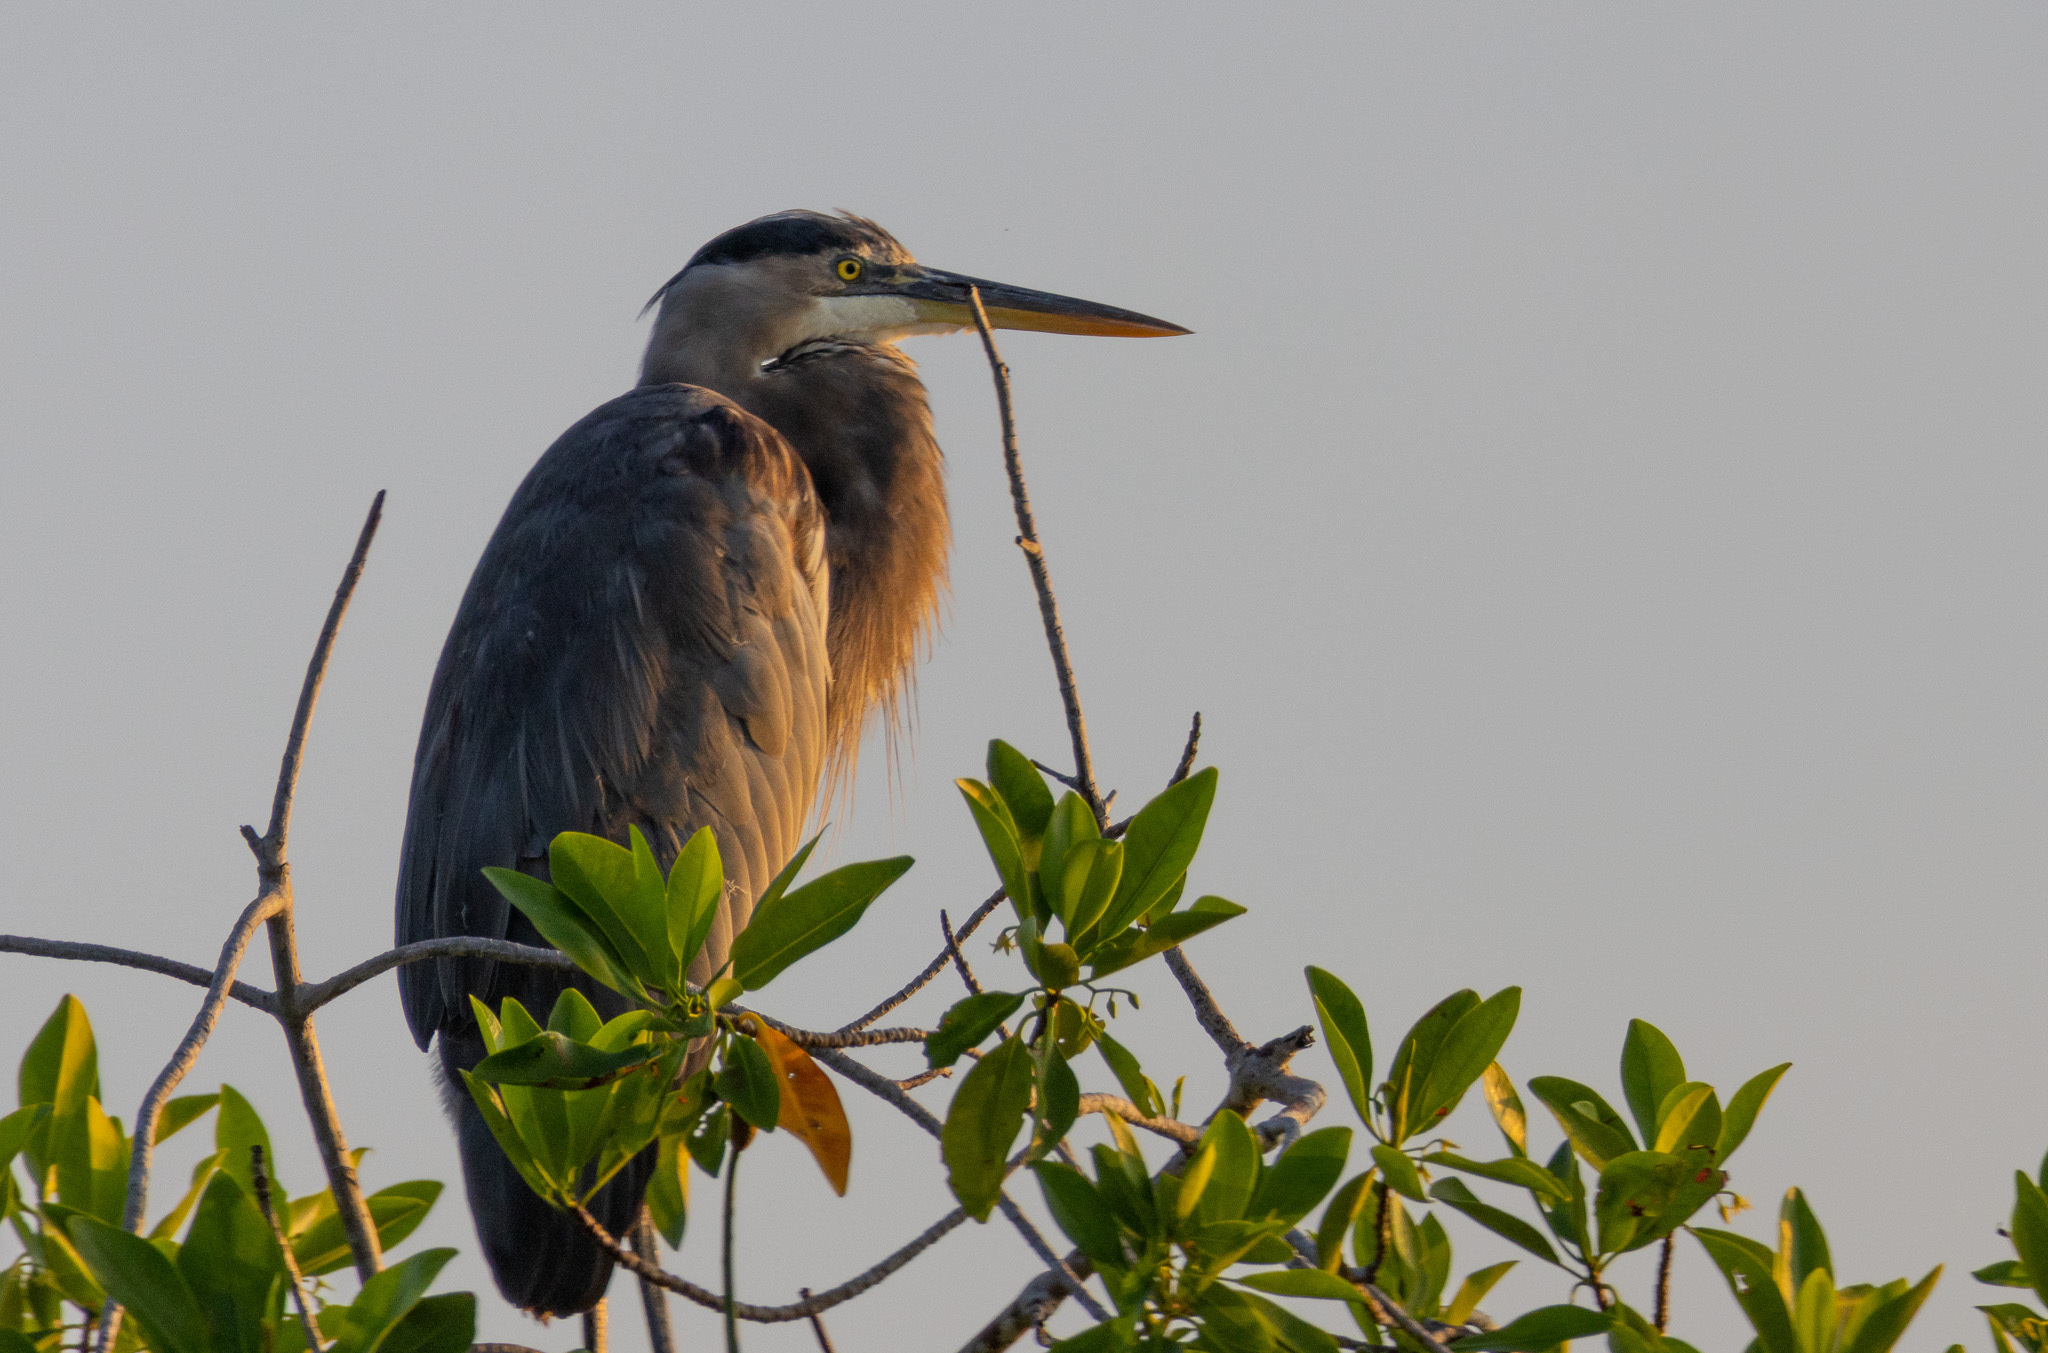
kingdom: Animalia
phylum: Chordata
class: Aves
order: Pelecaniformes
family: Ardeidae
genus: Ardea
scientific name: Ardea herodias
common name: Great blue heron
